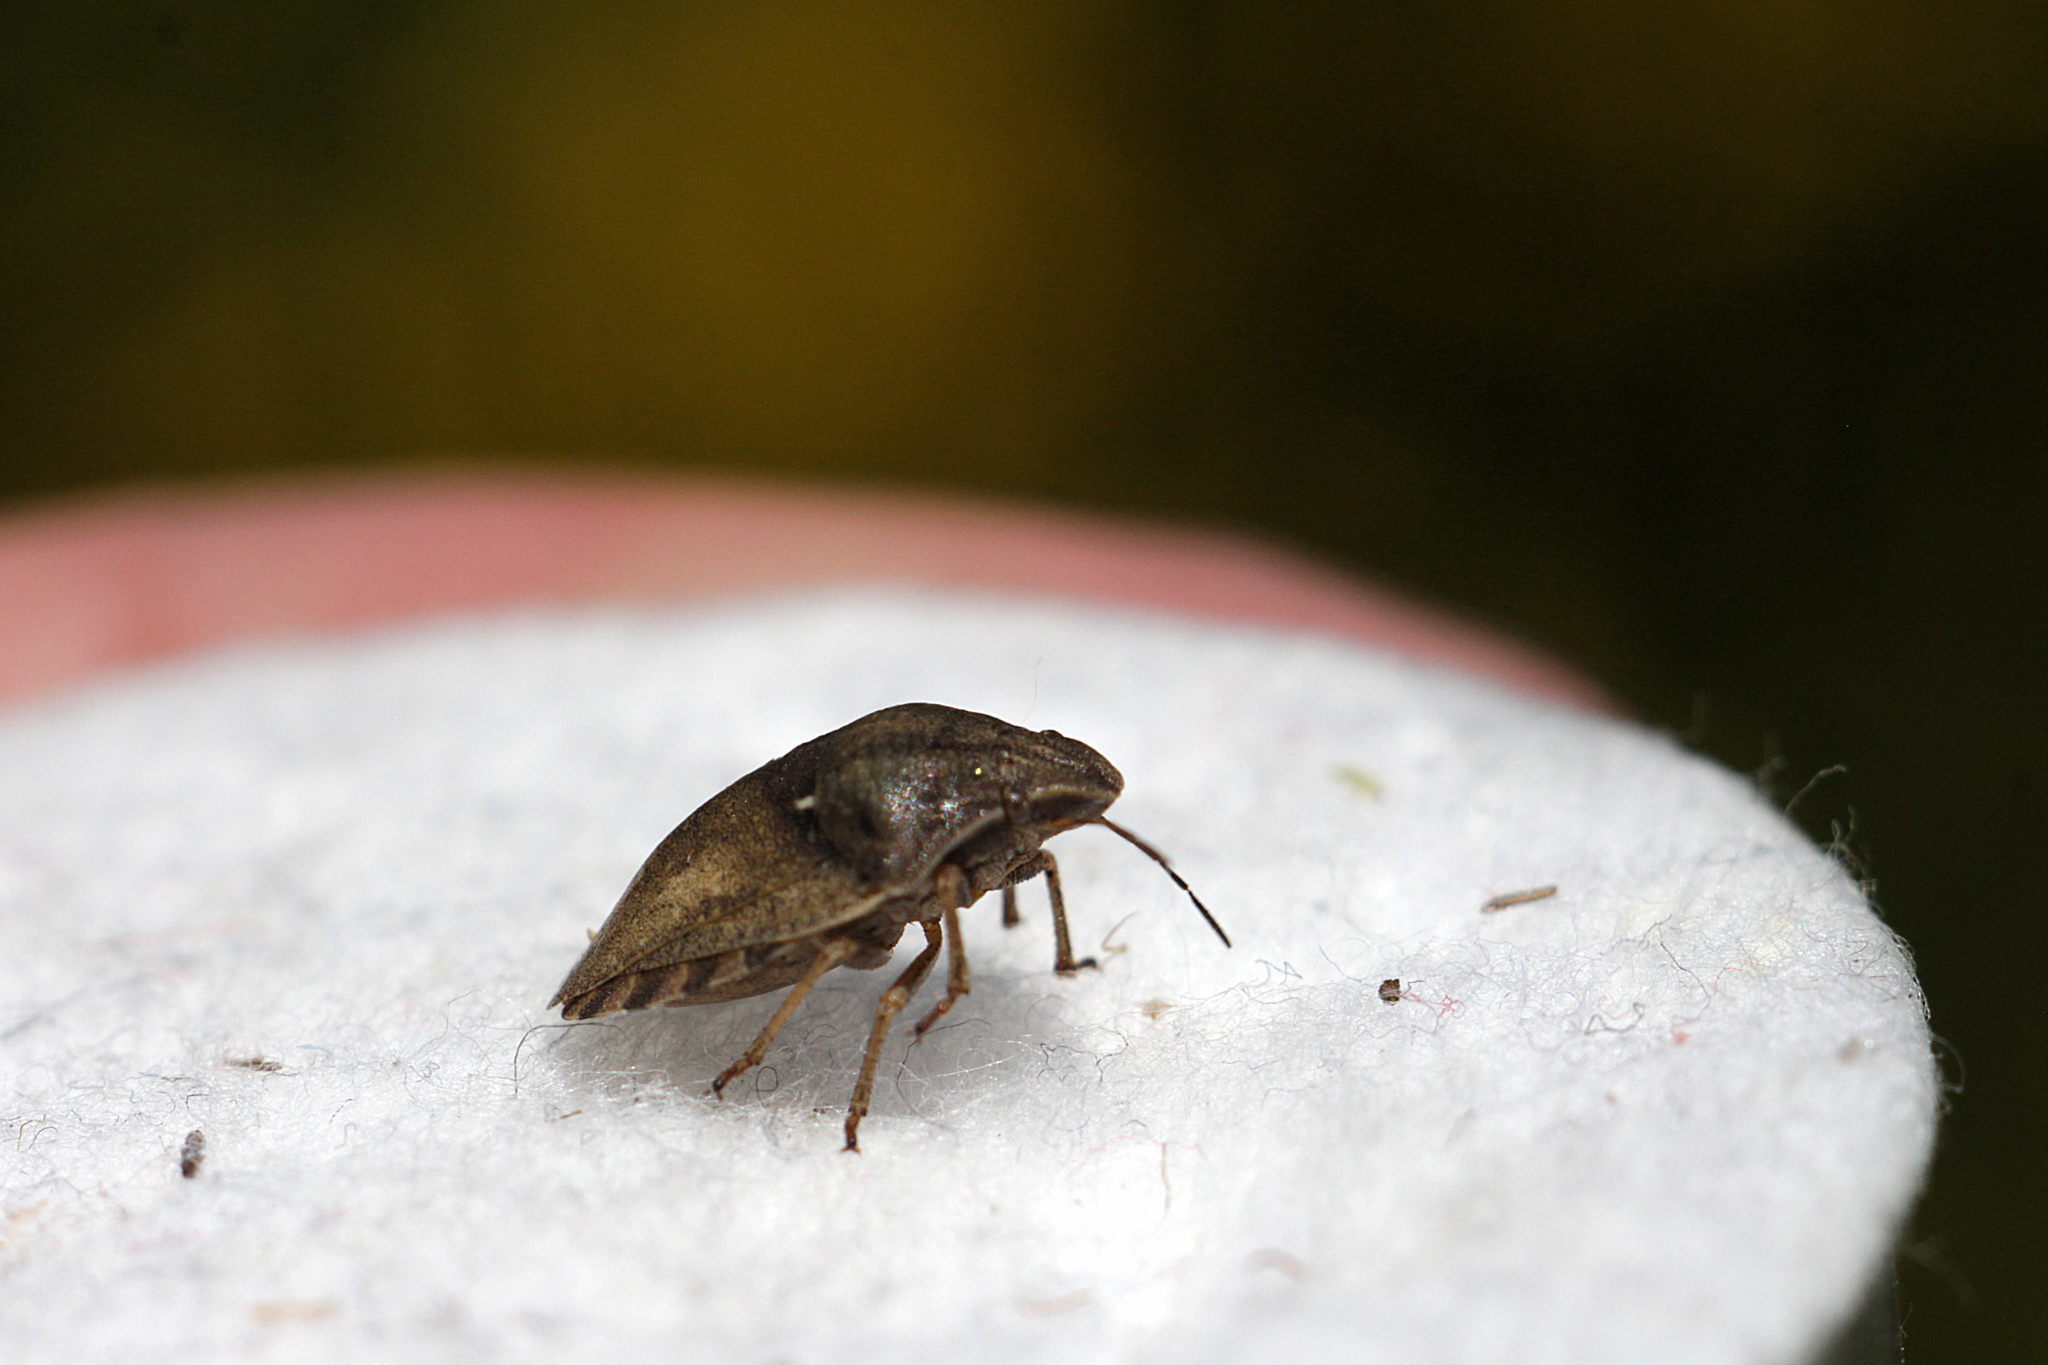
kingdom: Animalia
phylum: Arthropoda
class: Insecta
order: Hemiptera
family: Scutelleridae
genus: Eurygaster
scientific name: Eurygaster testudinaria
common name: Tortoise bug
